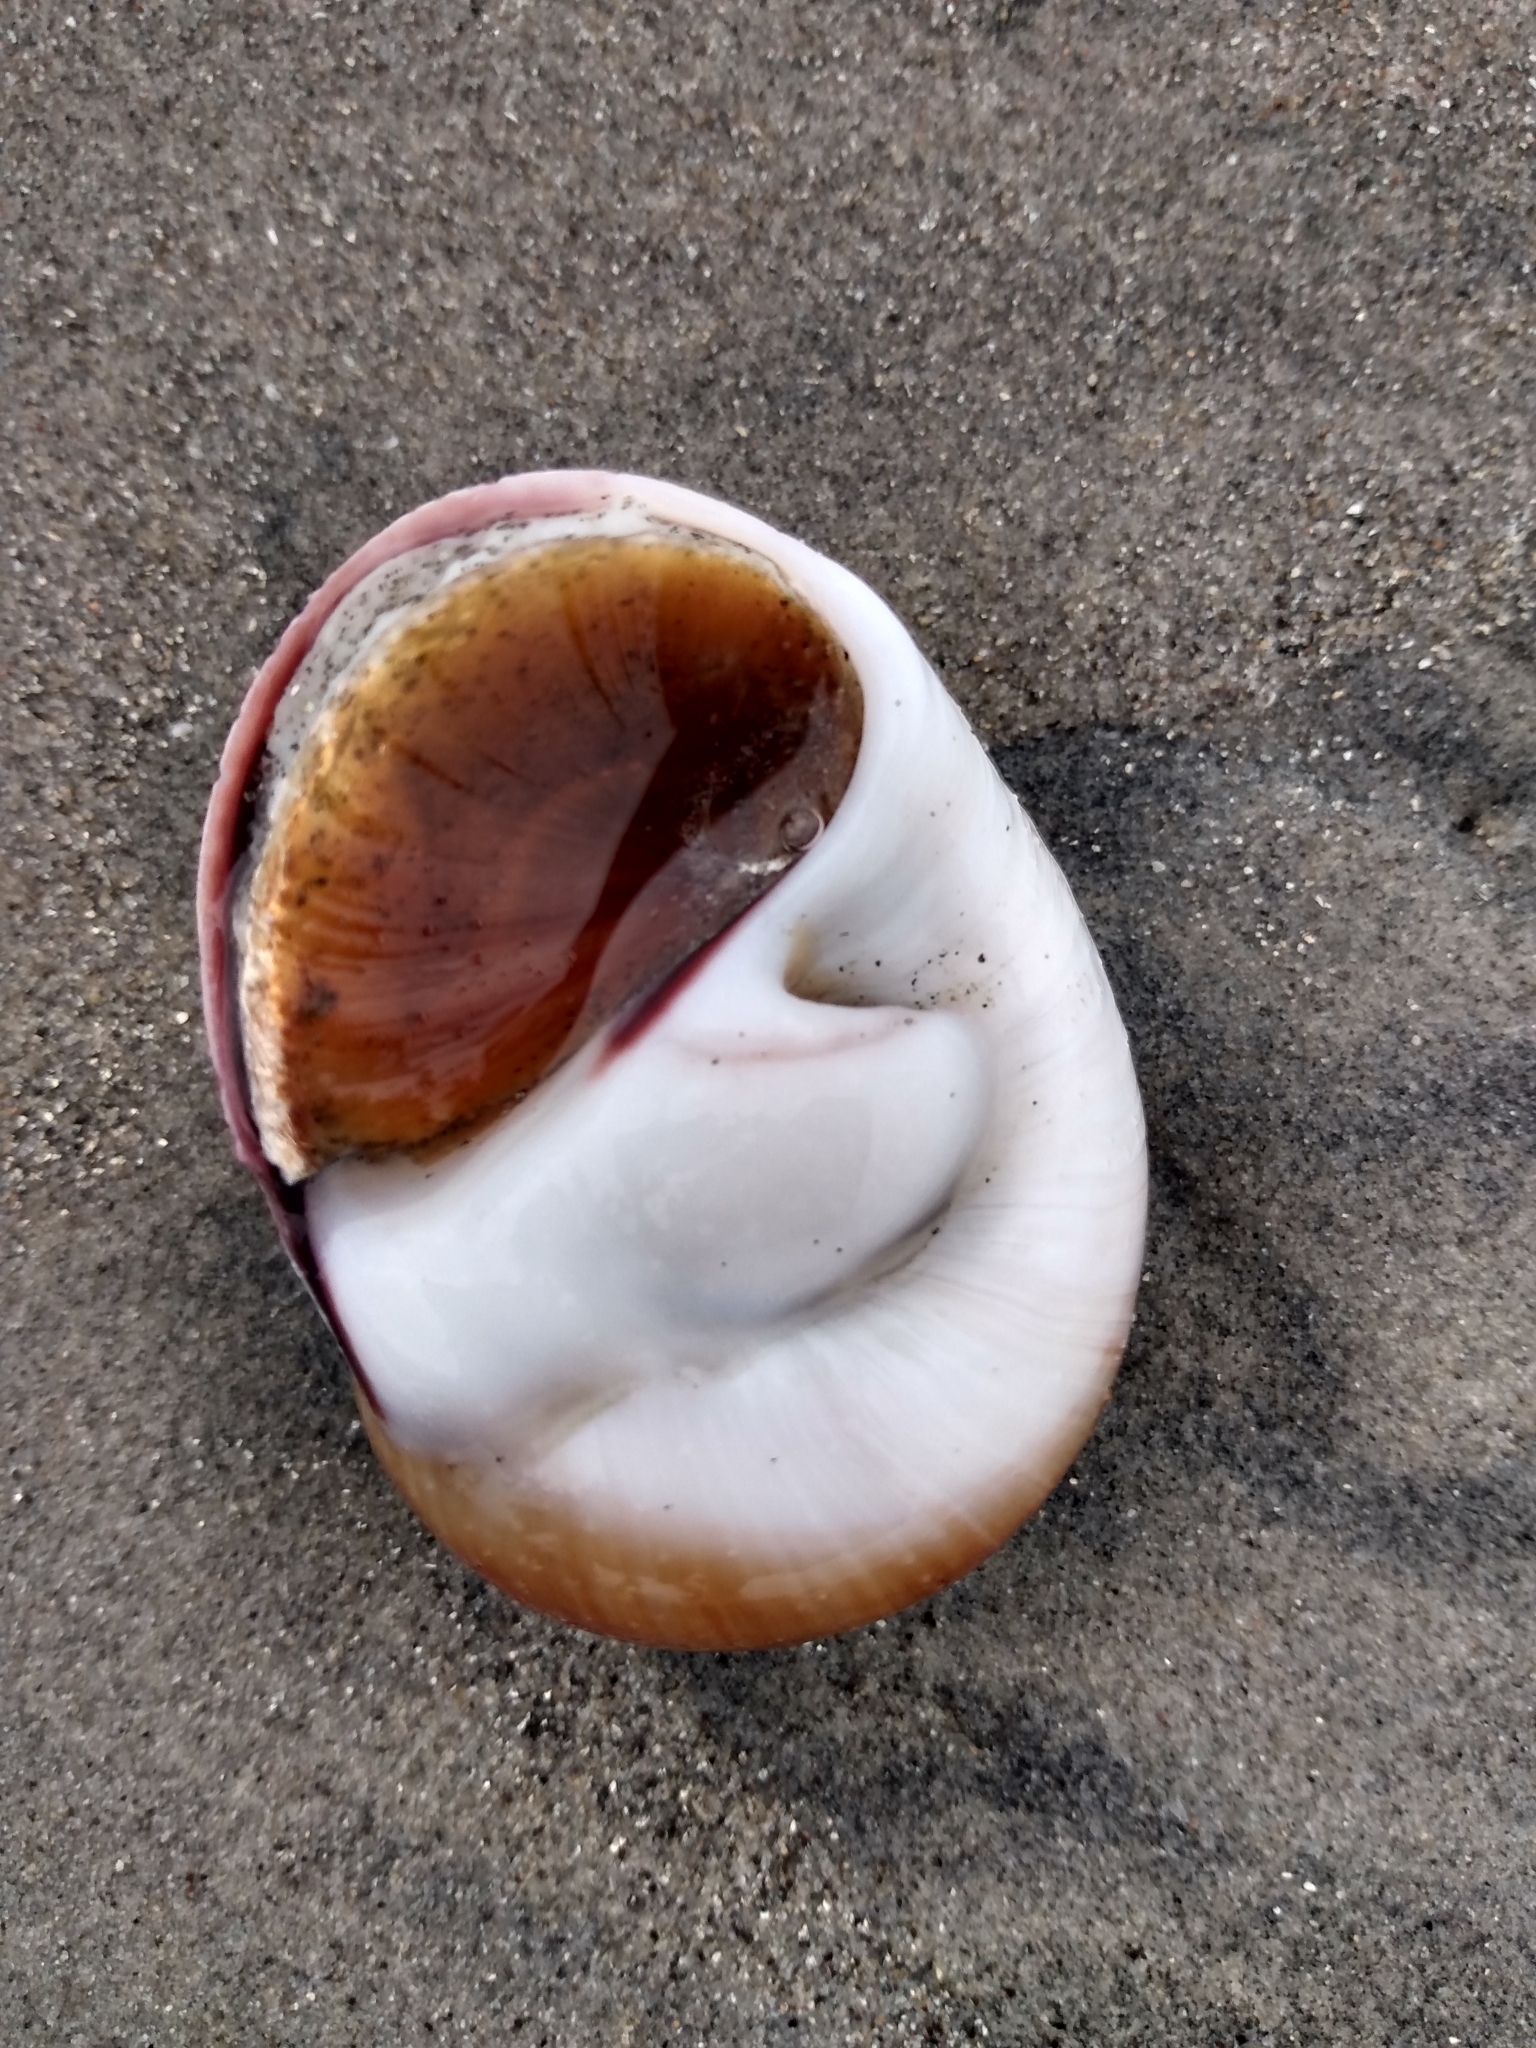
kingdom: Animalia
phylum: Mollusca
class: Gastropoda
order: Littorinimorpha
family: Naticidae
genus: Glossaulax
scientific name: Glossaulax reclusiana
